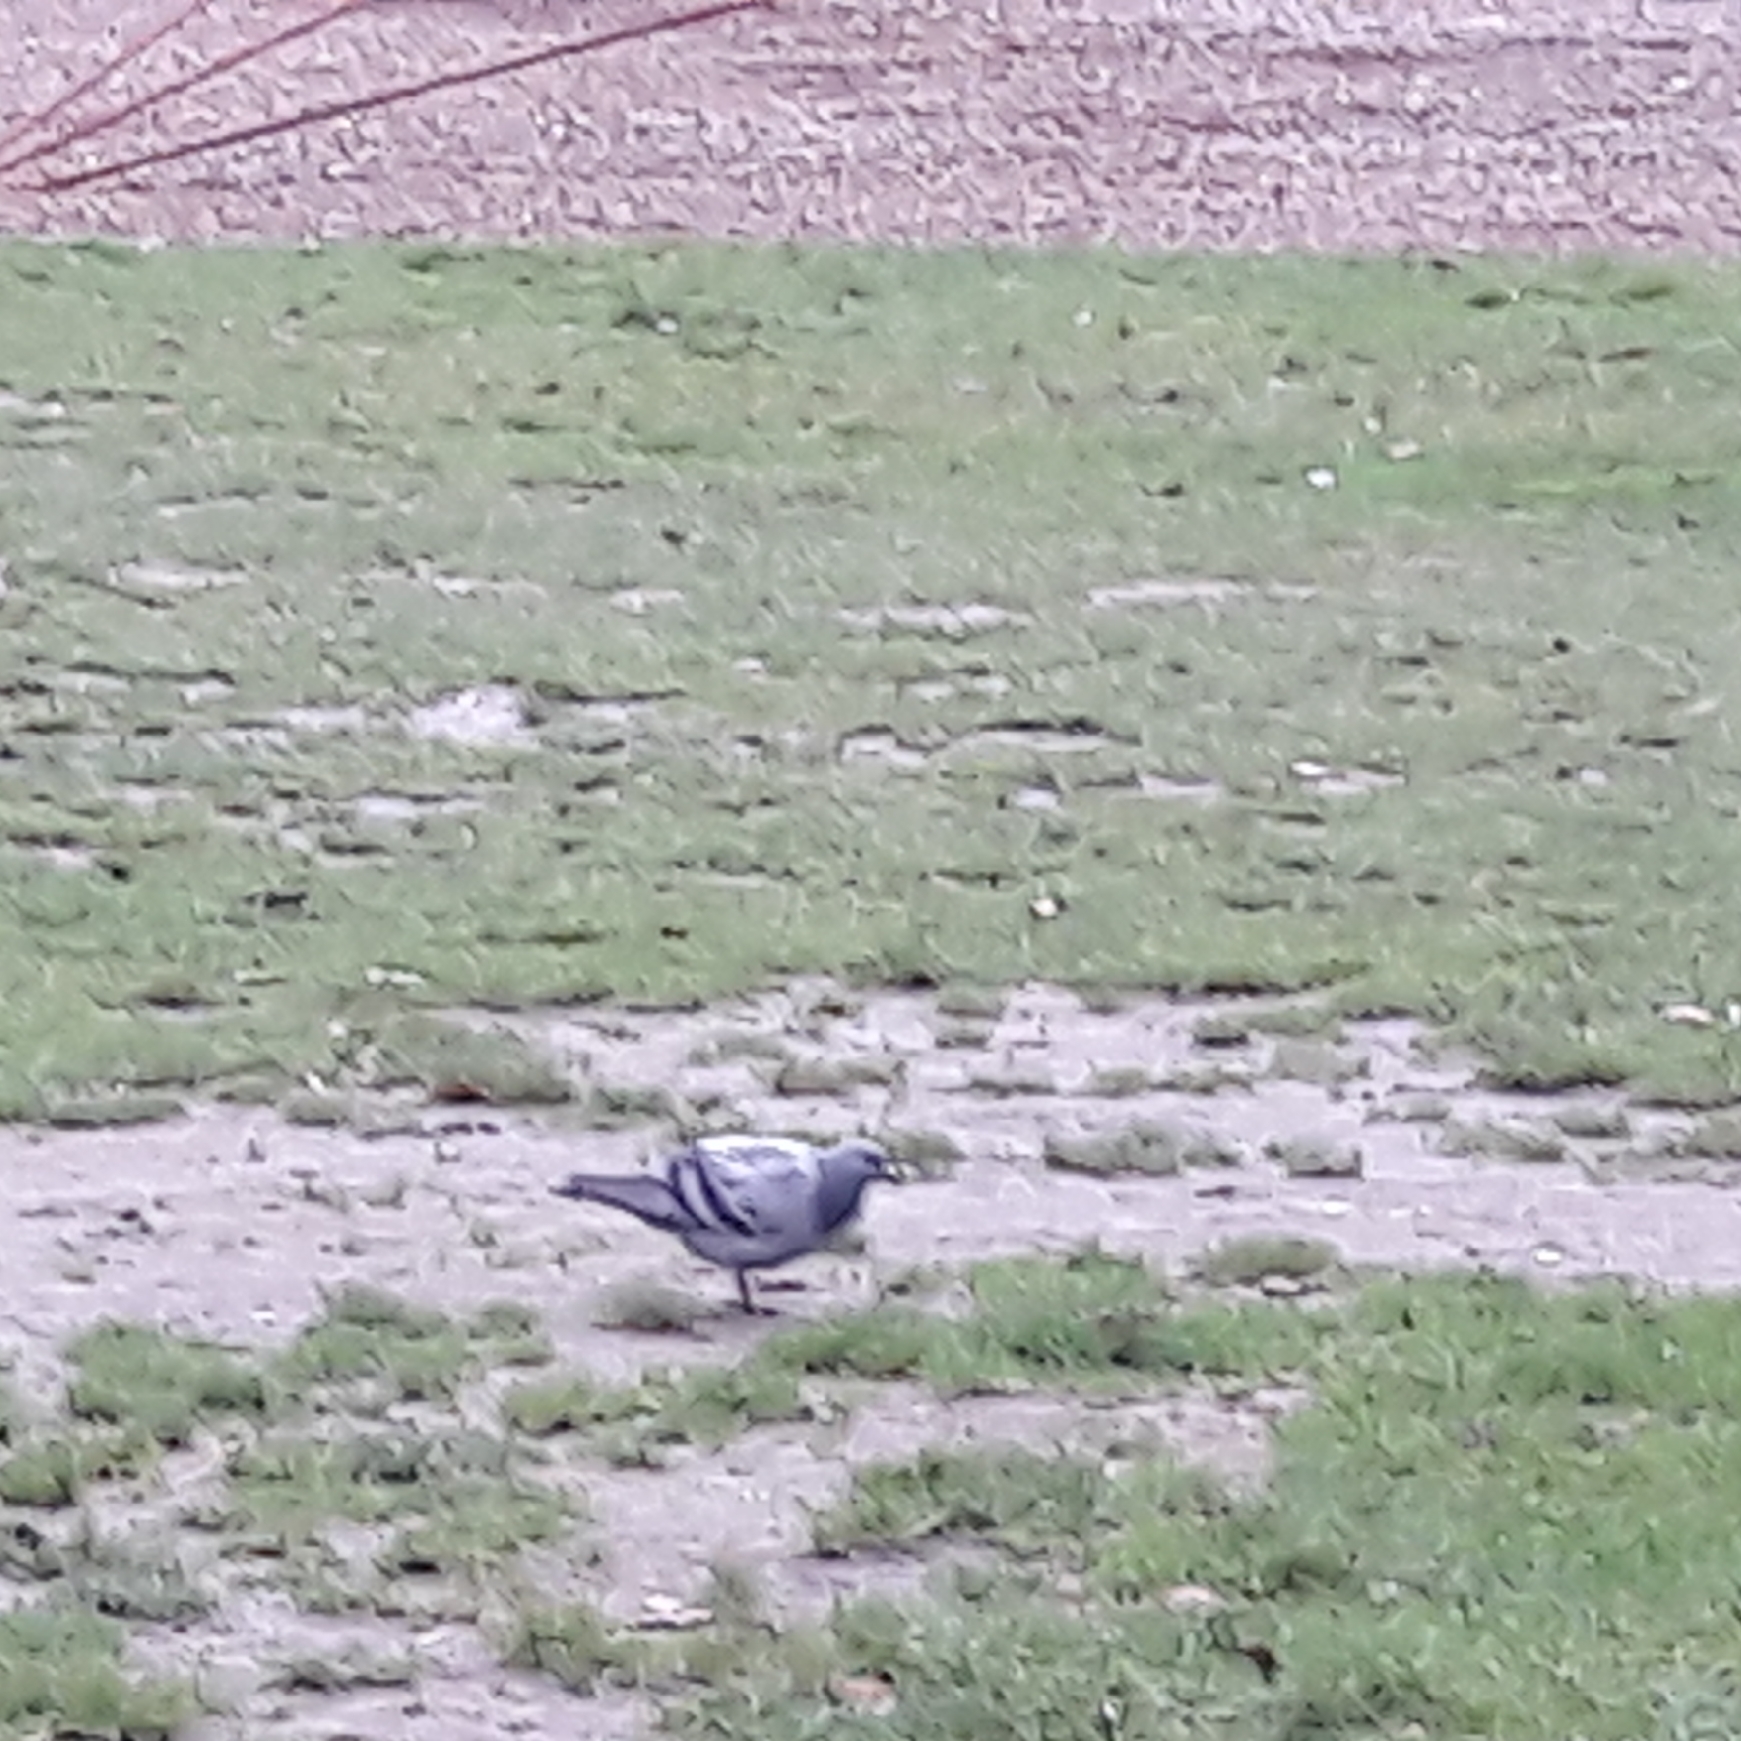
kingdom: Animalia
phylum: Chordata
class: Aves
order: Columbiformes
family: Columbidae
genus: Columba
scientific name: Columba livia
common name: Rock pigeon
